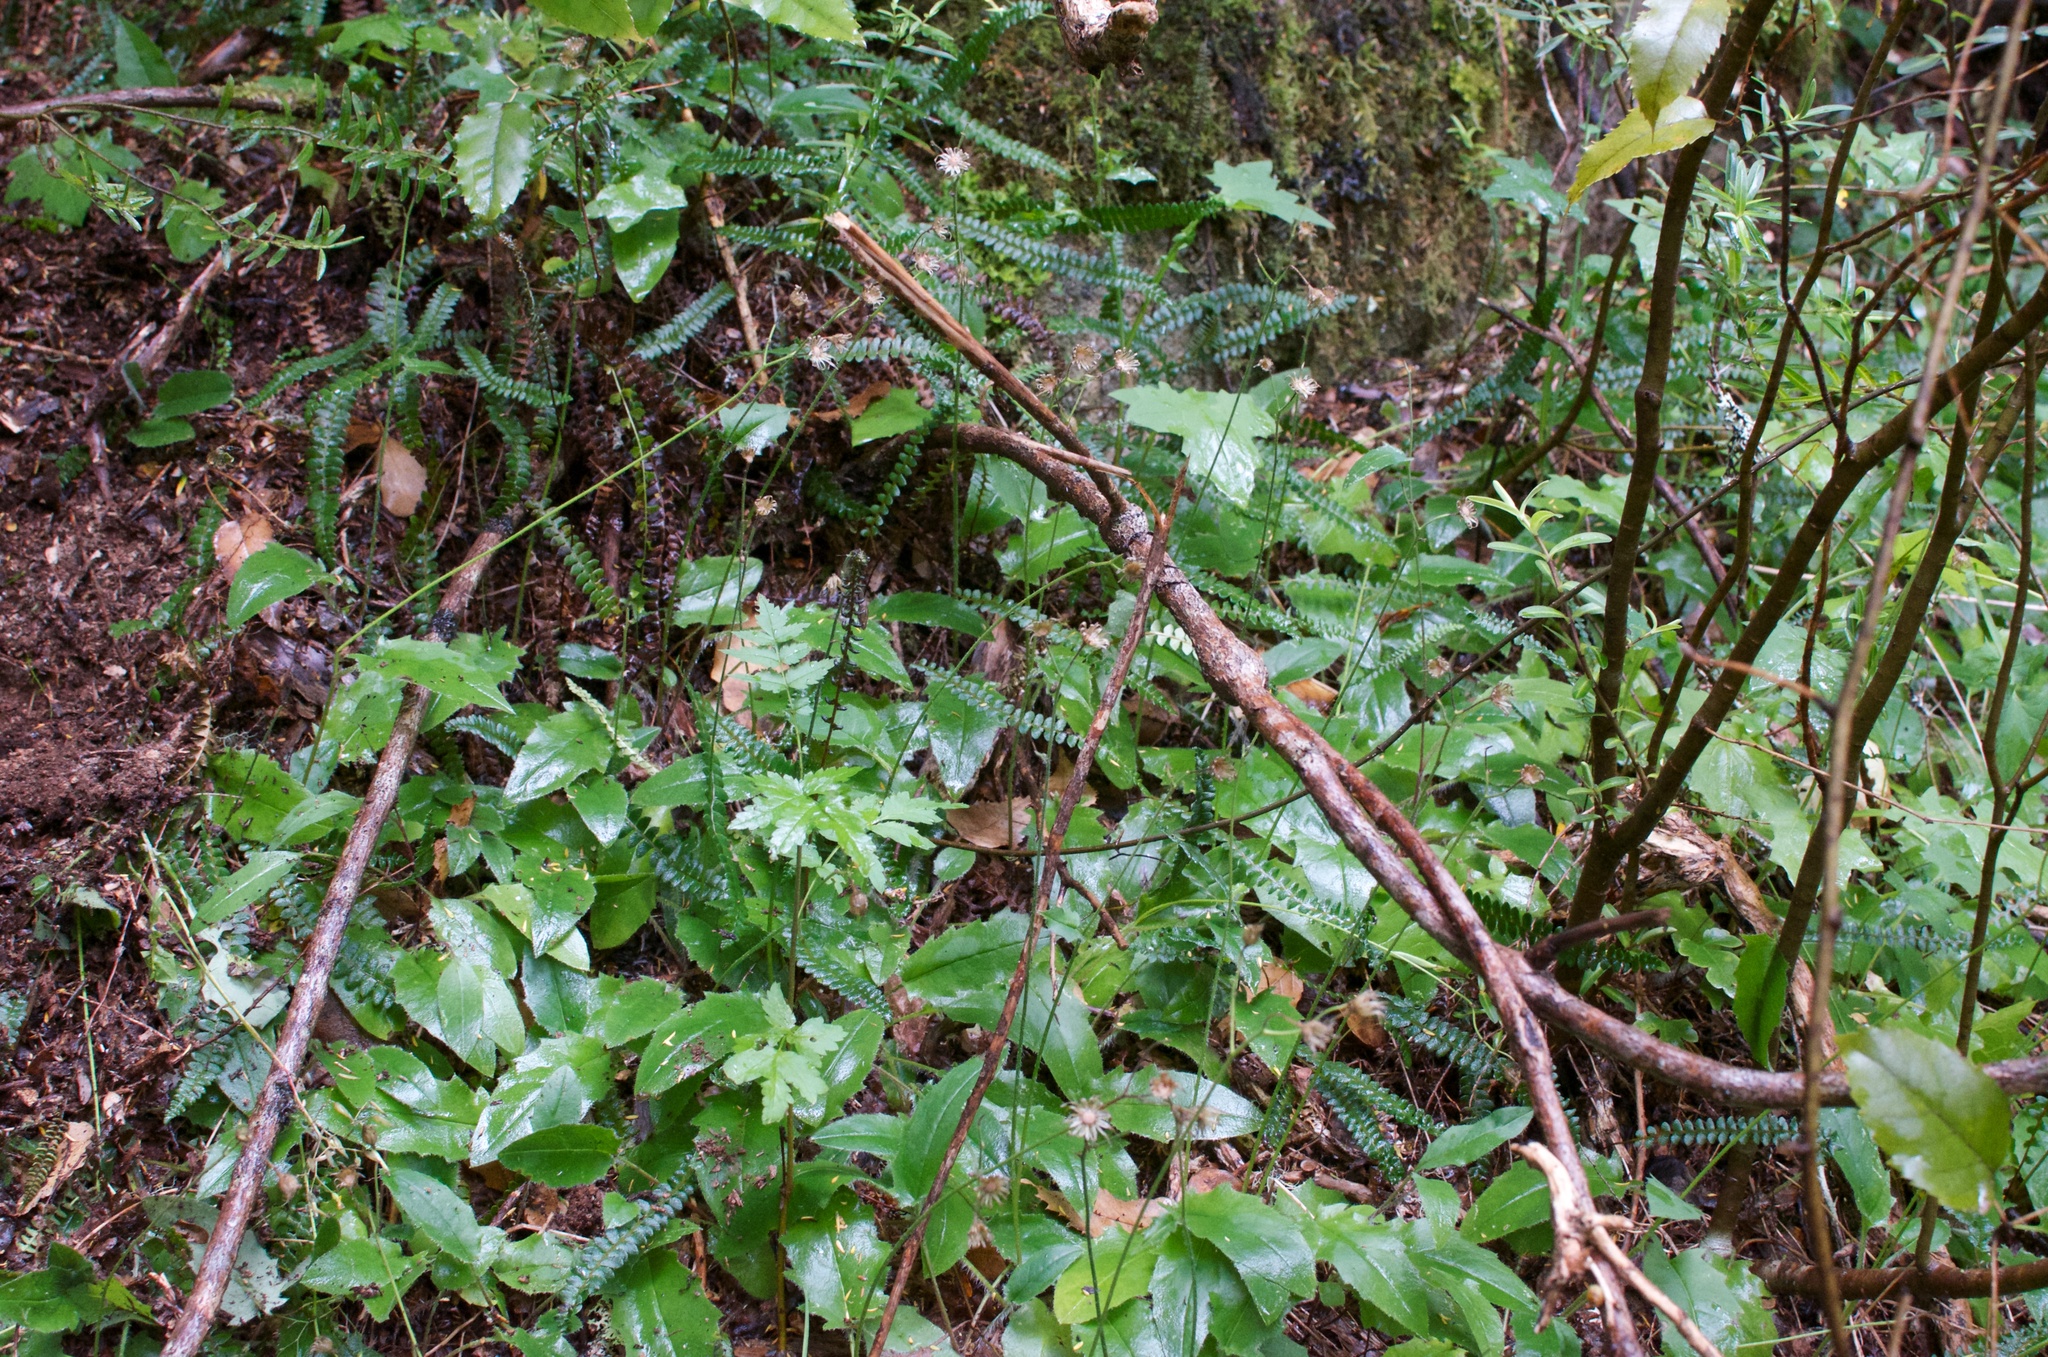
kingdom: Plantae
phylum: Tracheophyta
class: Magnoliopsida
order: Asterales
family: Asteraceae
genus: Hieracium
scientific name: Hieracium lepidulum
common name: Irregular-toothed hawkweed
